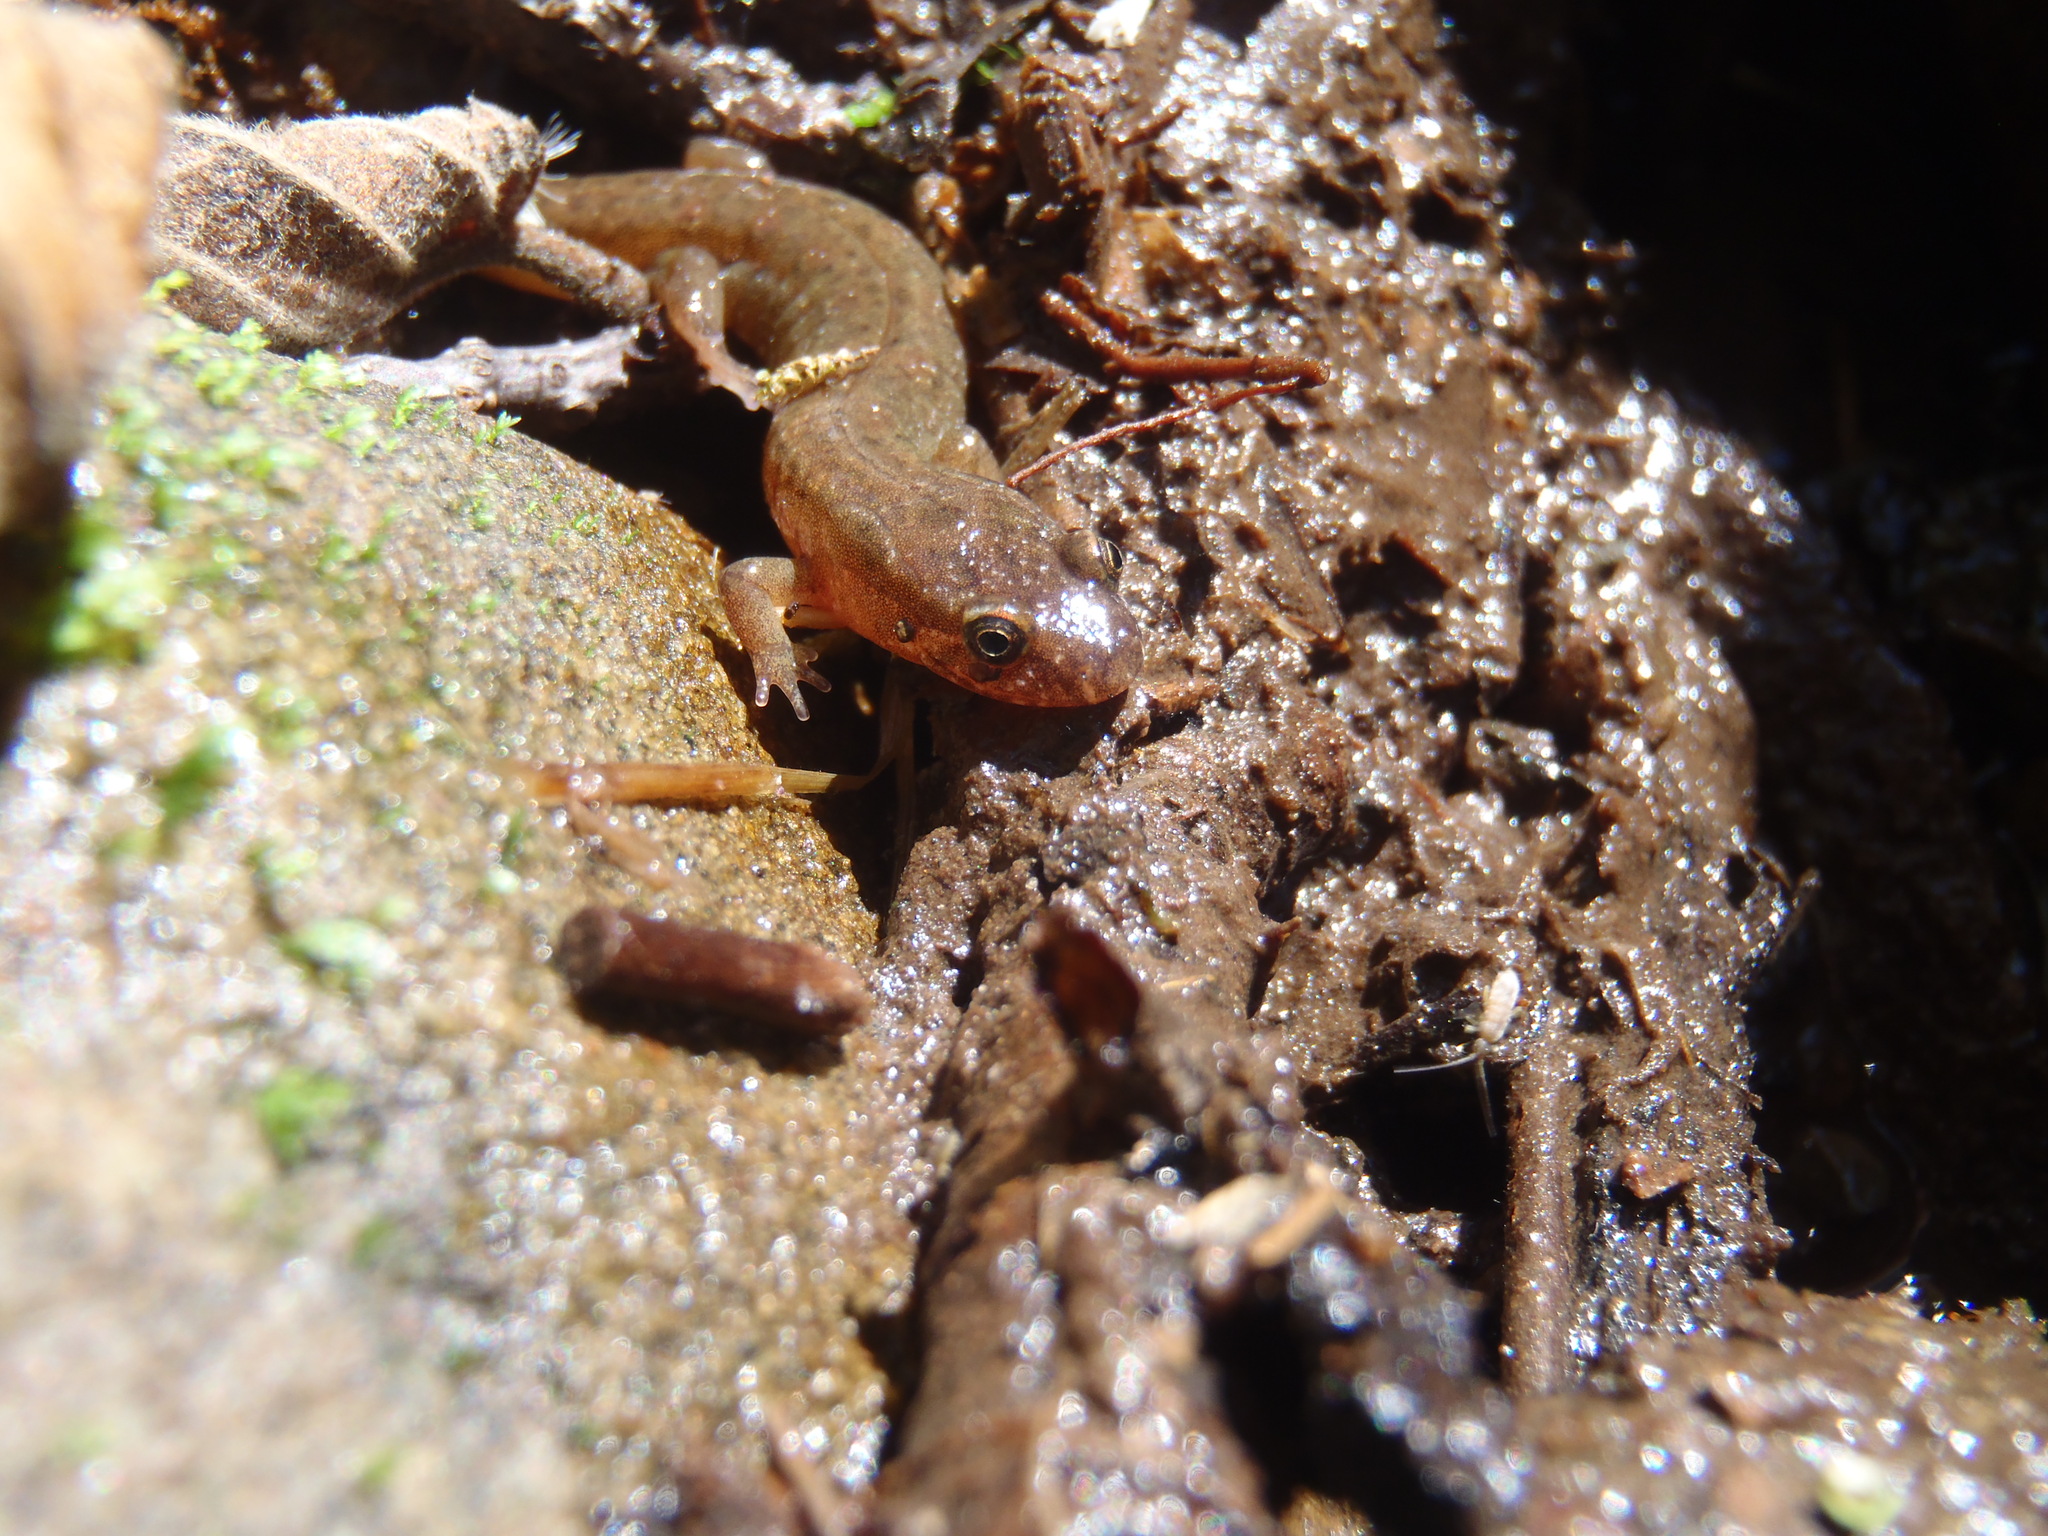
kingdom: Animalia
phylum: Chordata
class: Amphibia
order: Caudata
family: Plethodontidae
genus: Desmognathus
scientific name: Desmognathus conanti
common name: Spotted dusky salamander
